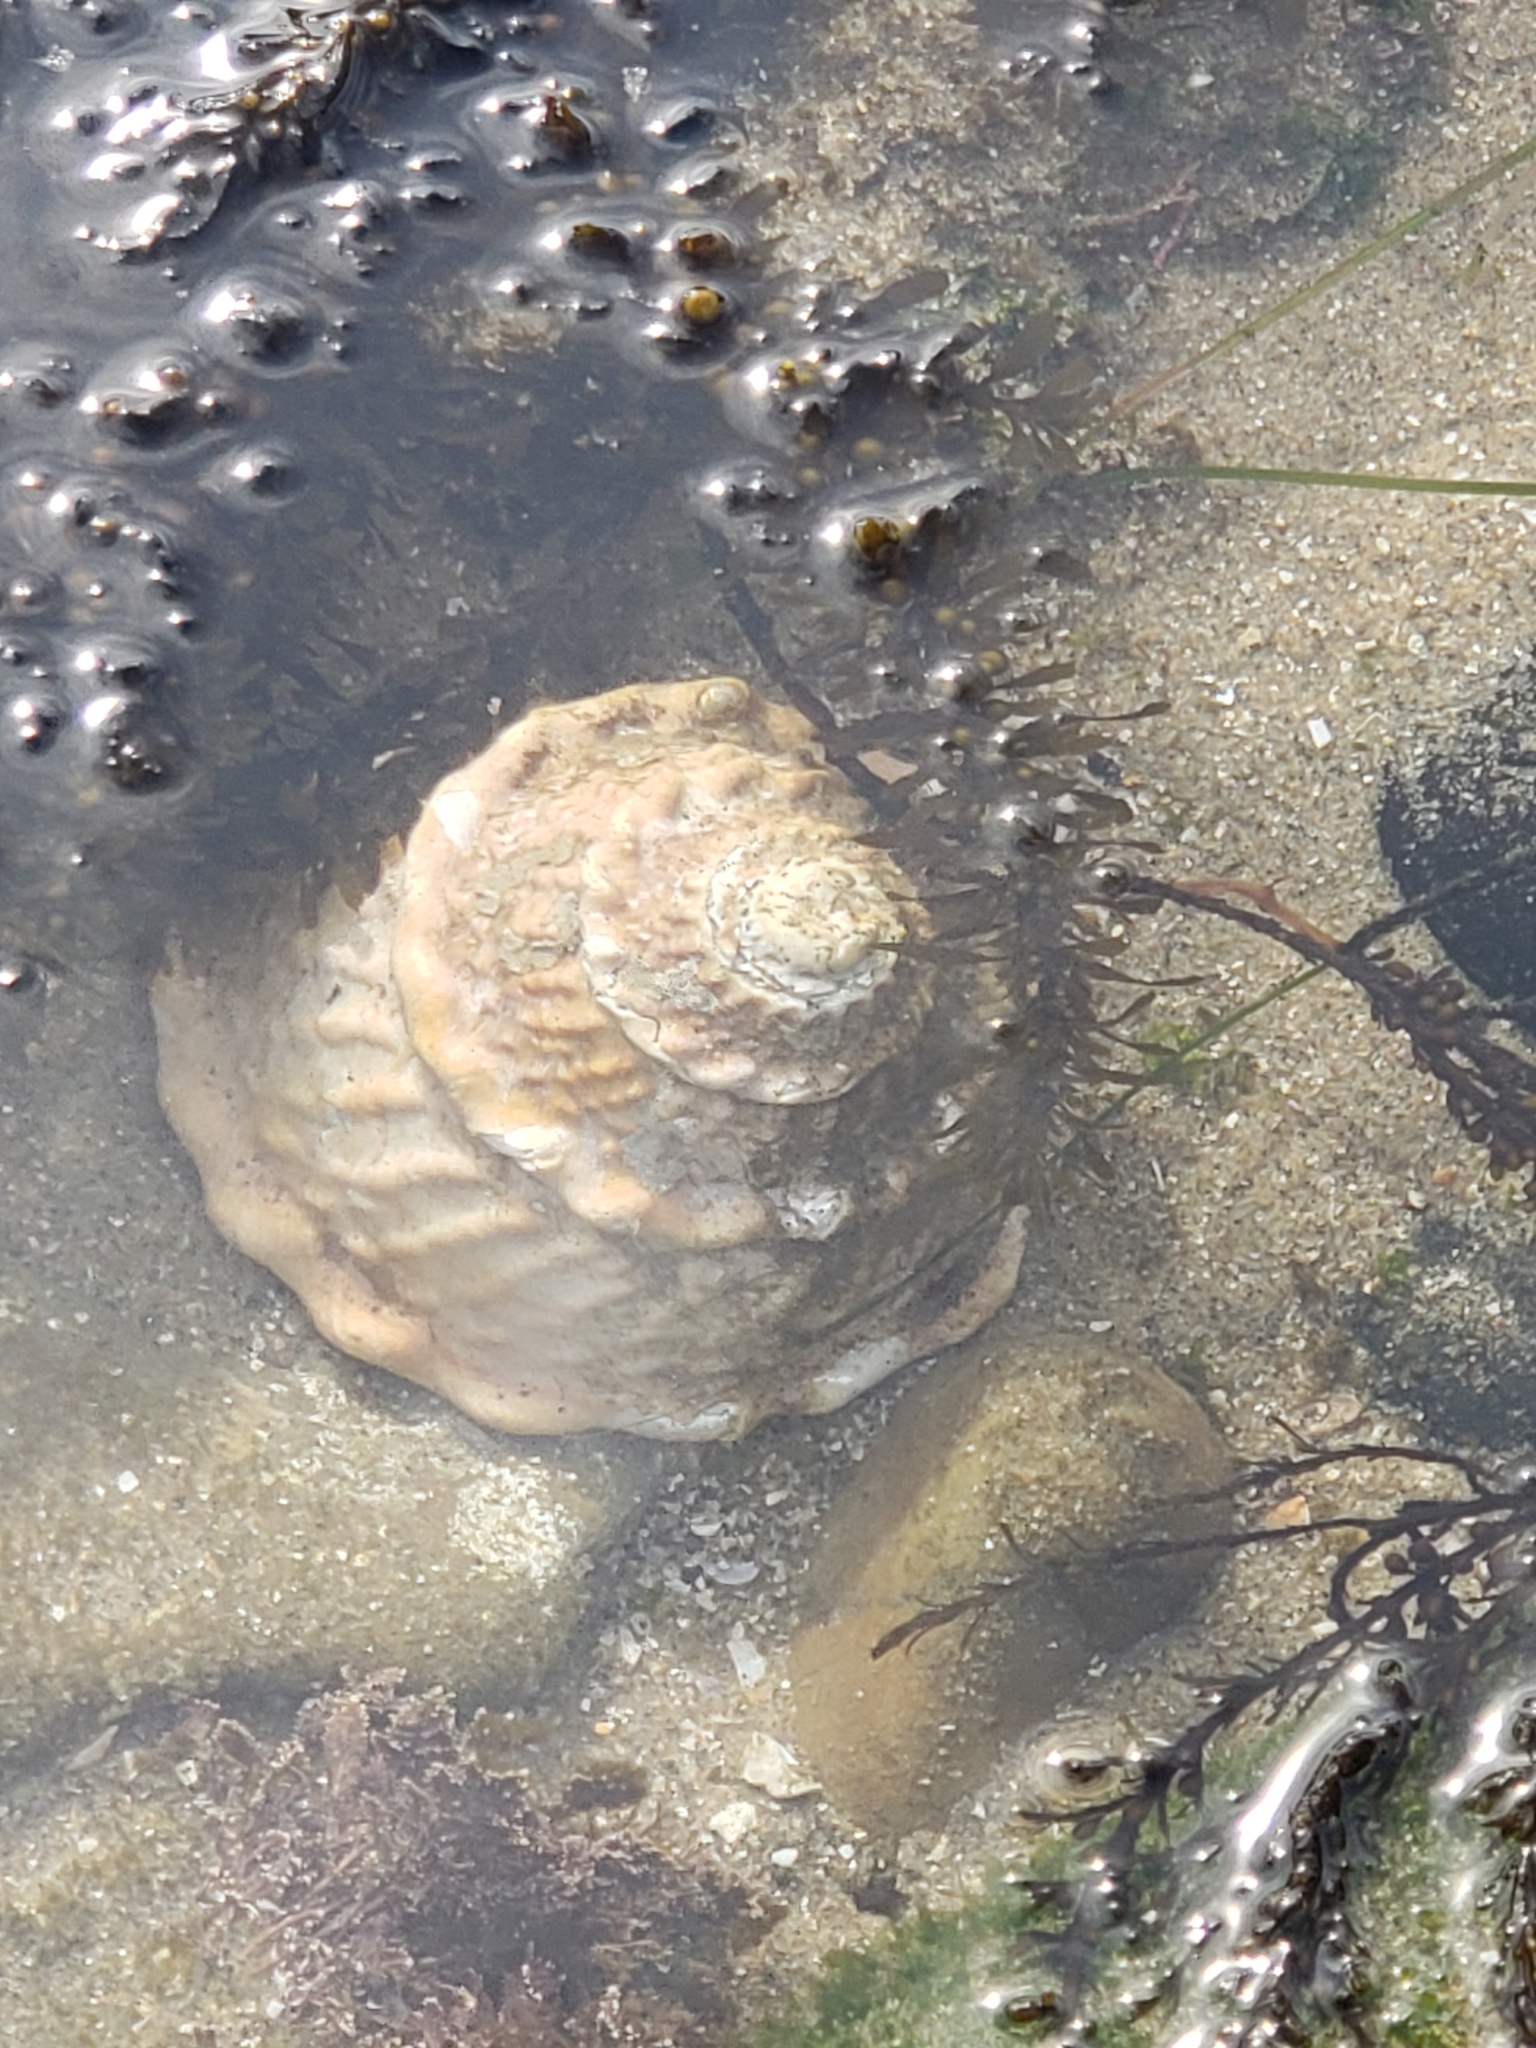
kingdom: Animalia
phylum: Mollusca
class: Gastropoda
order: Trochida
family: Turbinidae
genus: Megastraea
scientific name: Megastraea undosa
